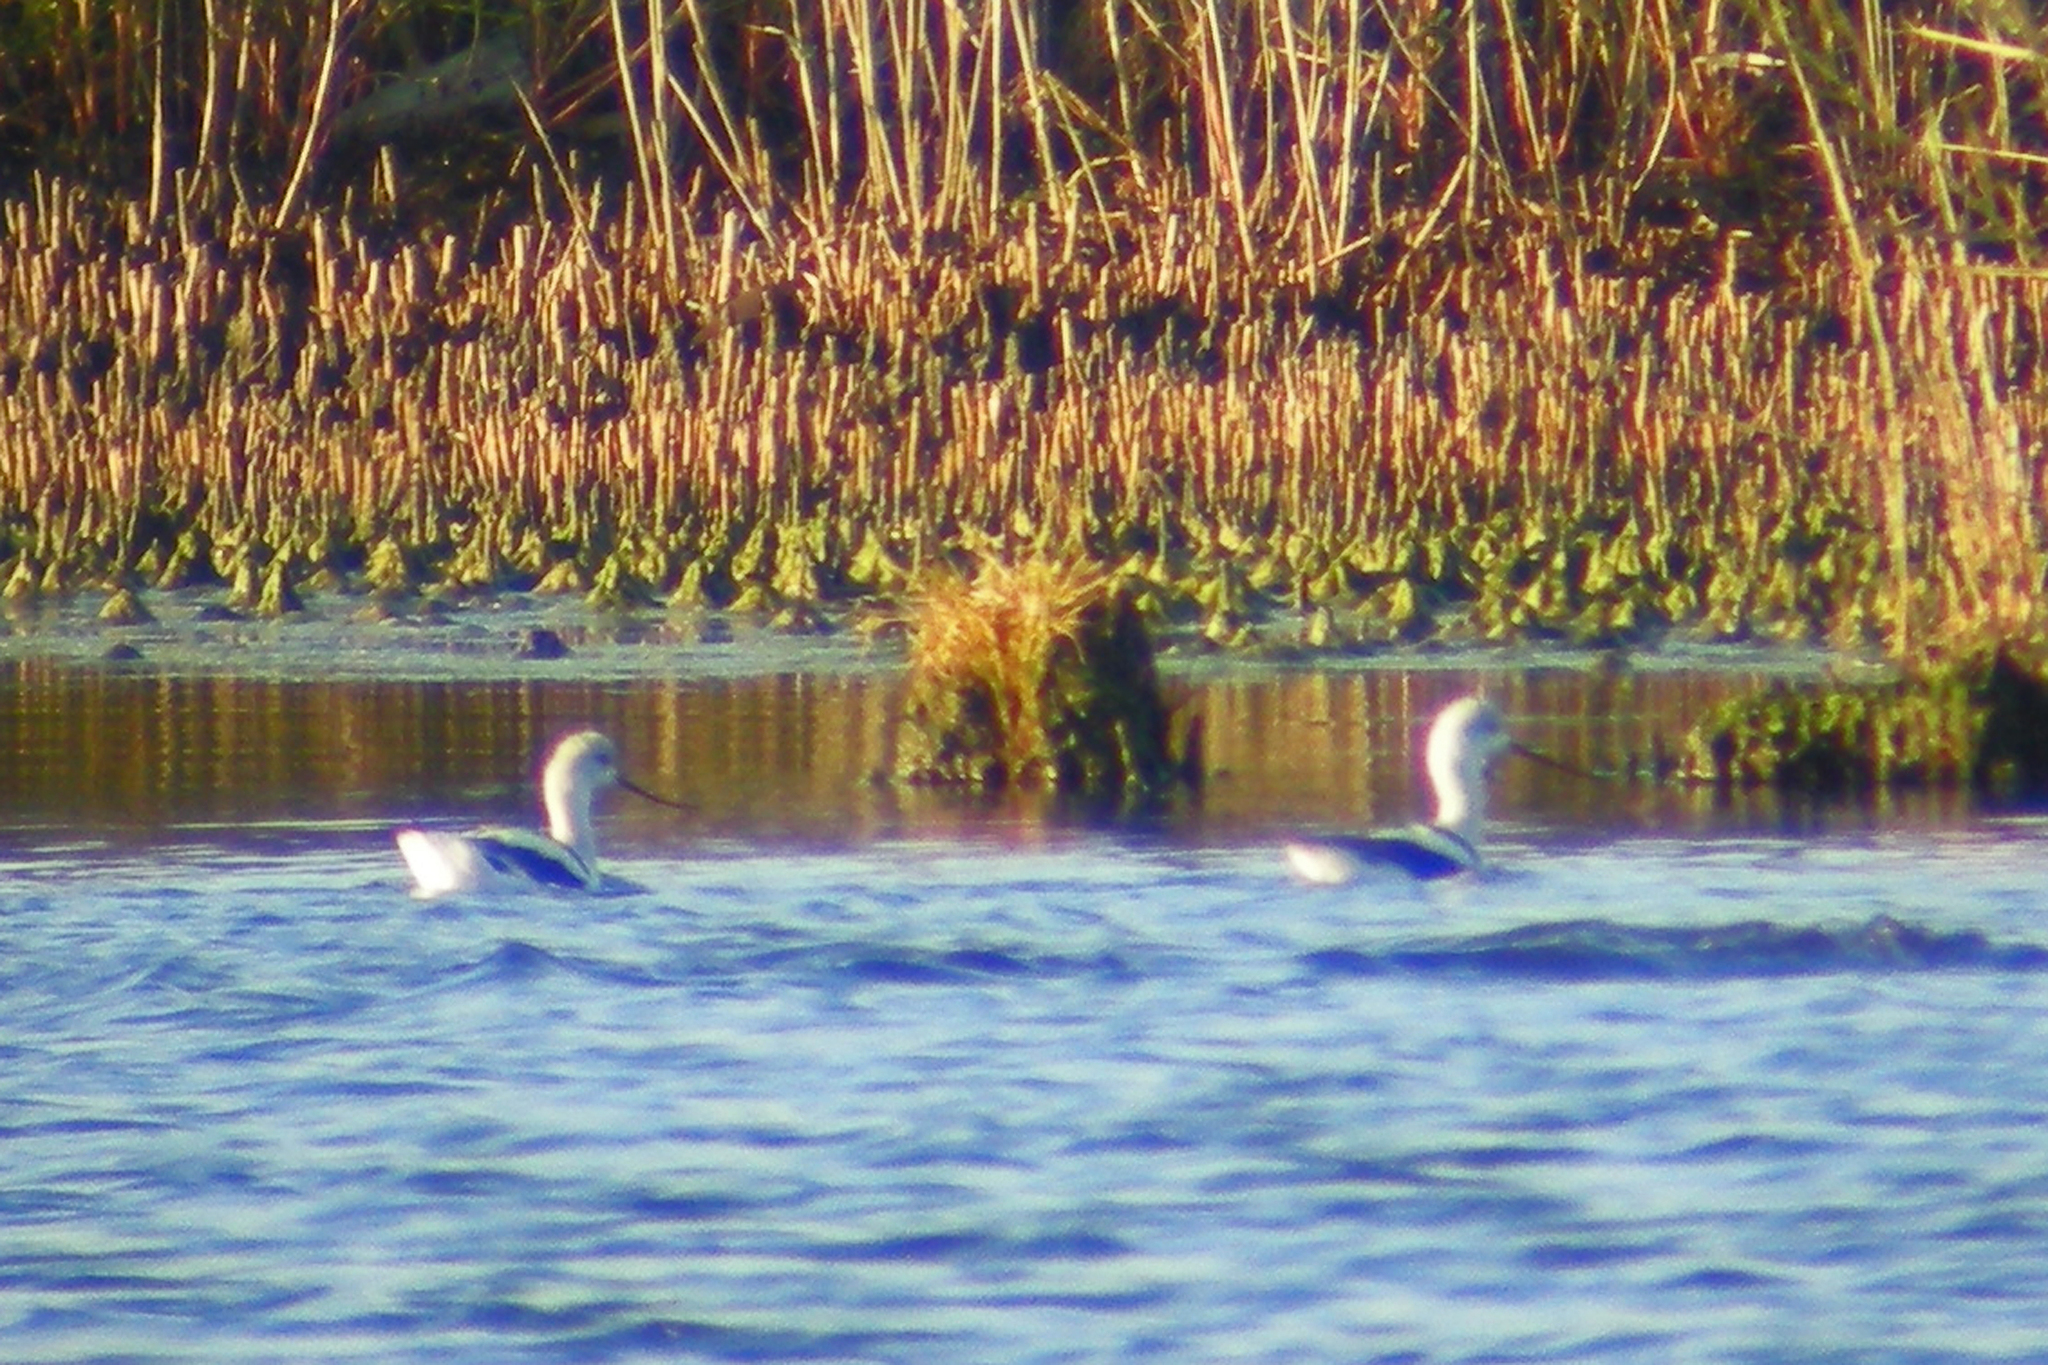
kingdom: Animalia
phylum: Chordata
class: Aves
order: Charadriiformes
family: Recurvirostridae
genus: Recurvirostra
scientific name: Recurvirostra americana
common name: American avocet
